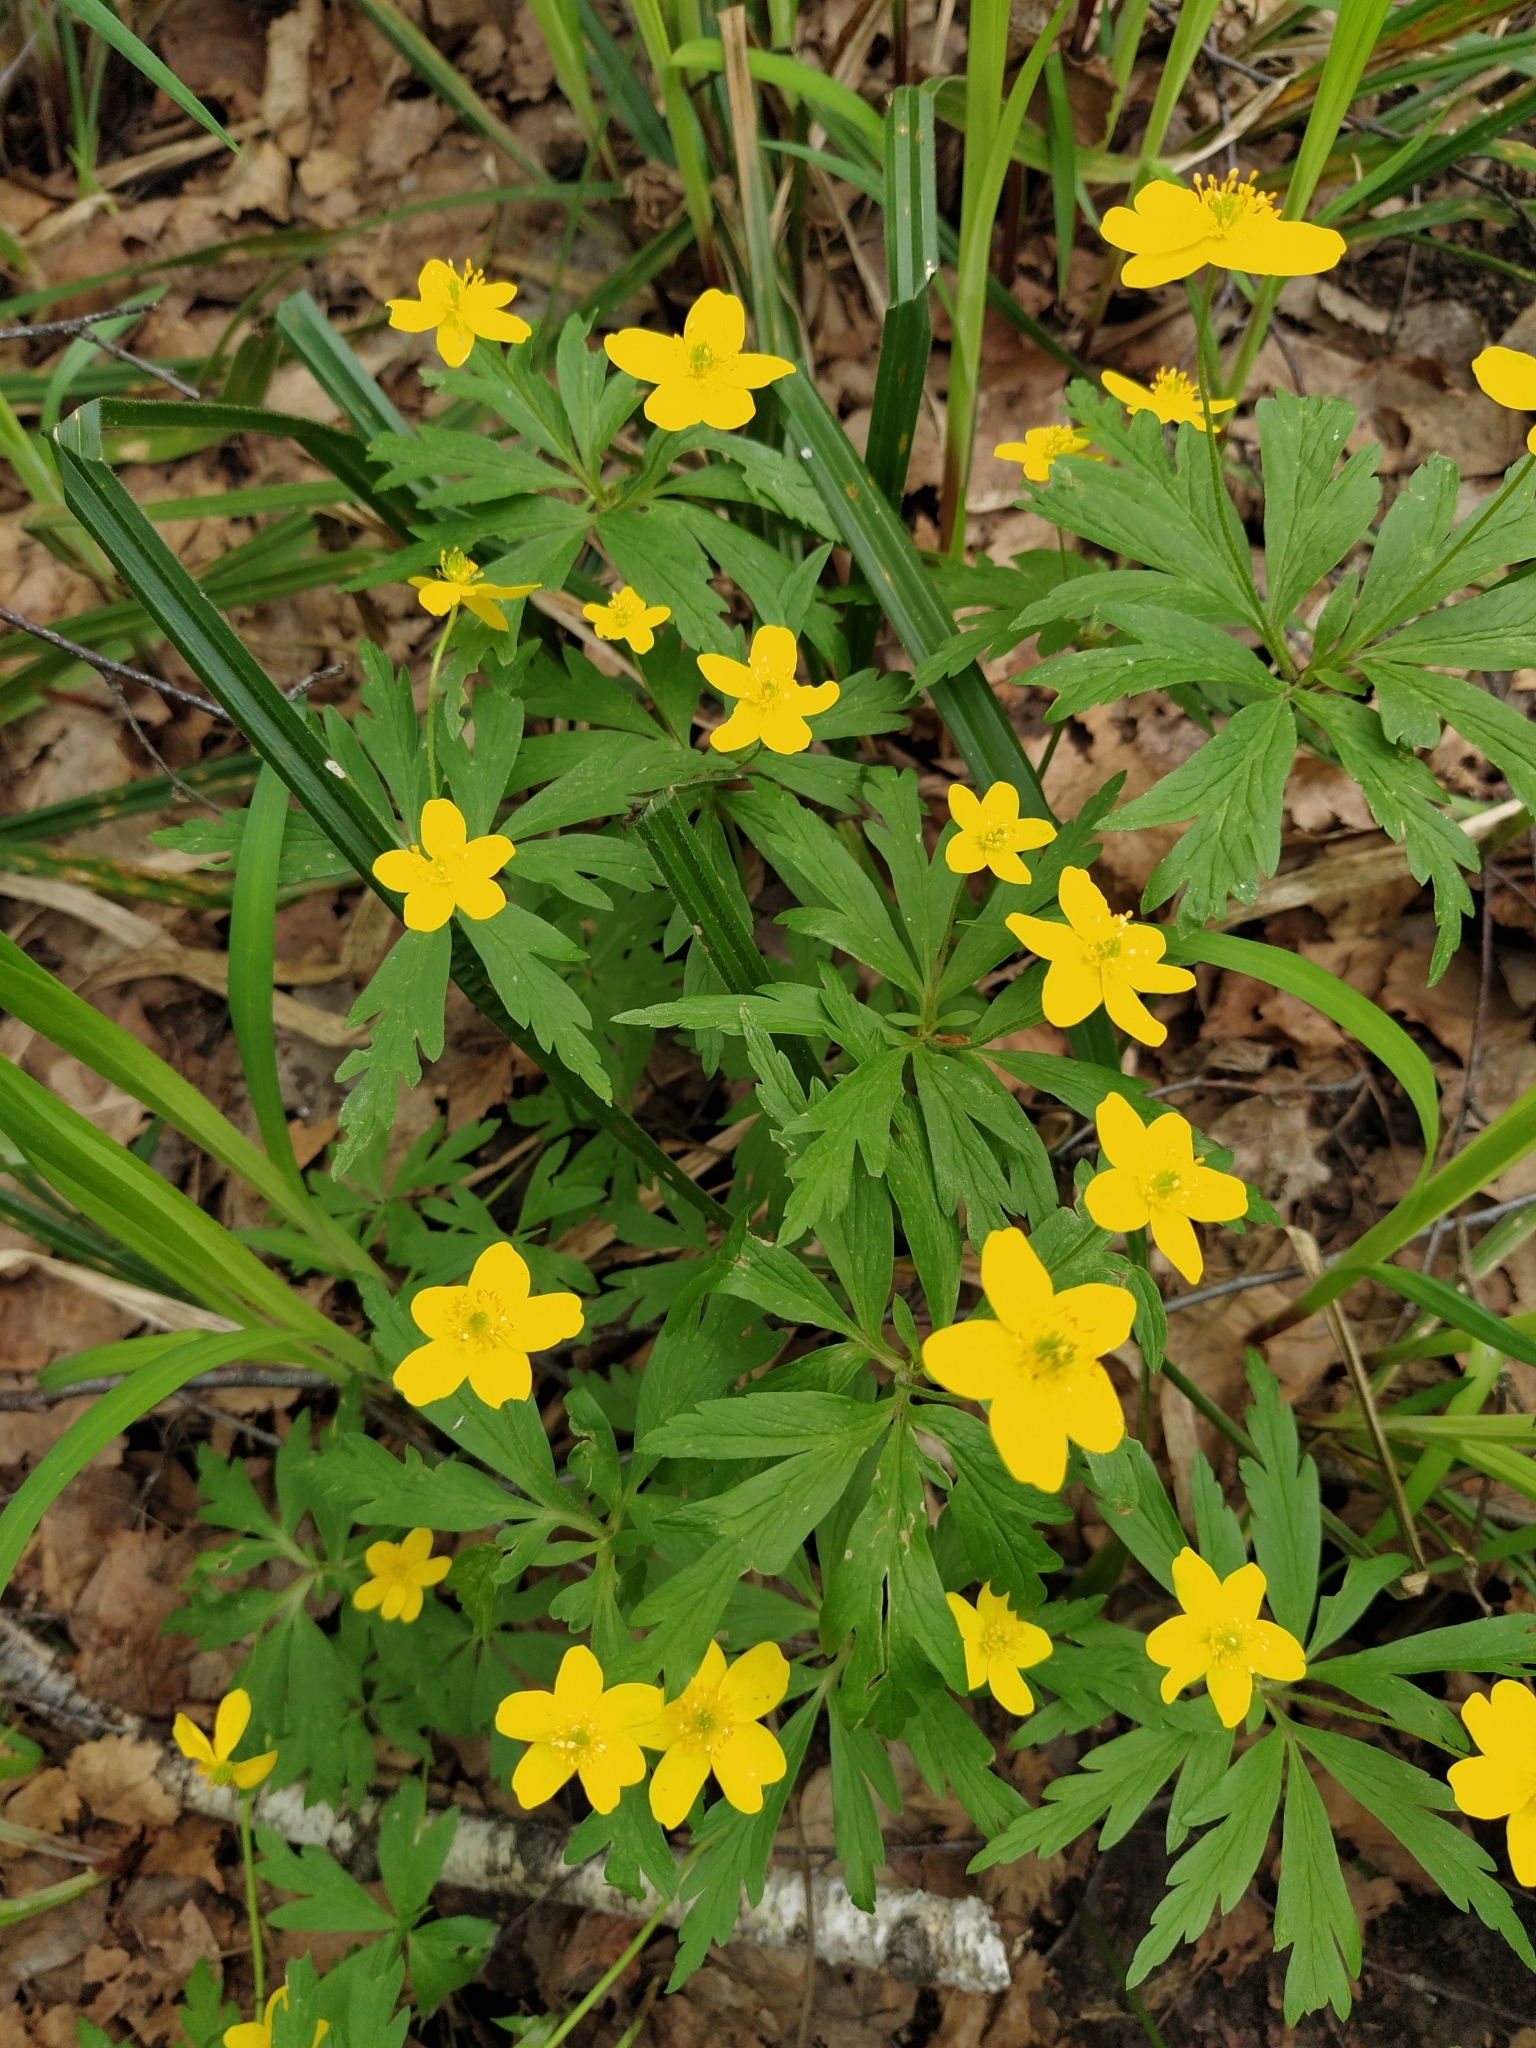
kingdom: Plantae
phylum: Tracheophyta
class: Magnoliopsida
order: Ranunculales
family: Ranunculaceae
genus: Anemone
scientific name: Anemone ranunculoides
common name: Yellow anemone
